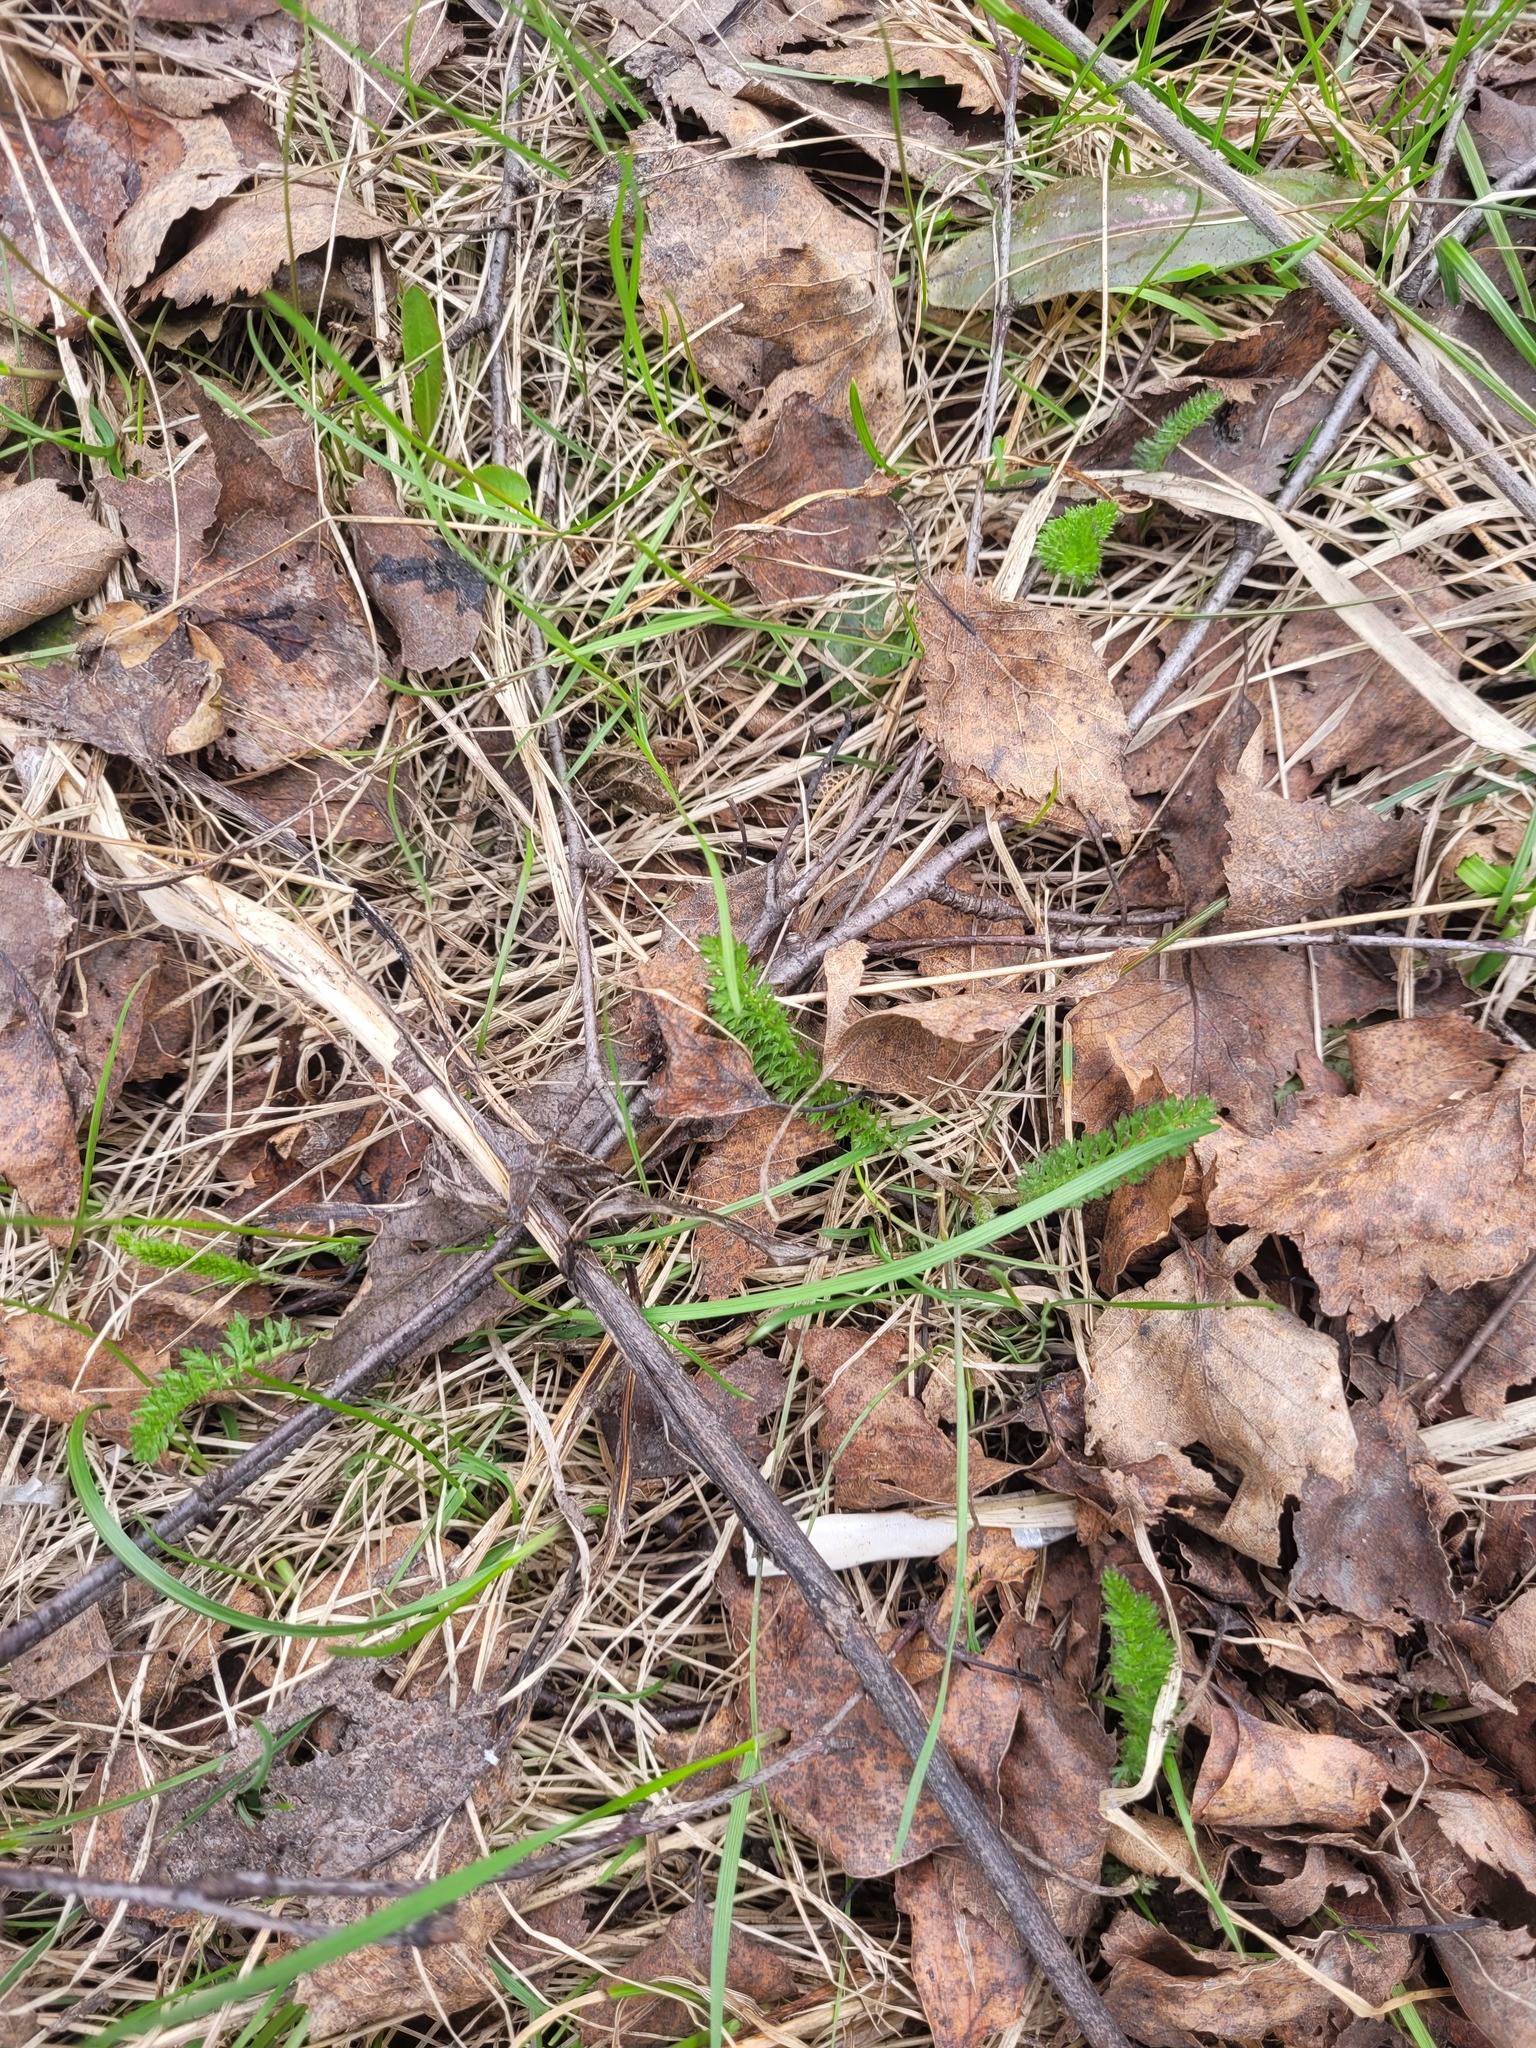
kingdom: Plantae
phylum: Tracheophyta
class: Magnoliopsida
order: Asterales
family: Asteraceae
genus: Achillea
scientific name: Achillea millefolium
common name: Yarrow
